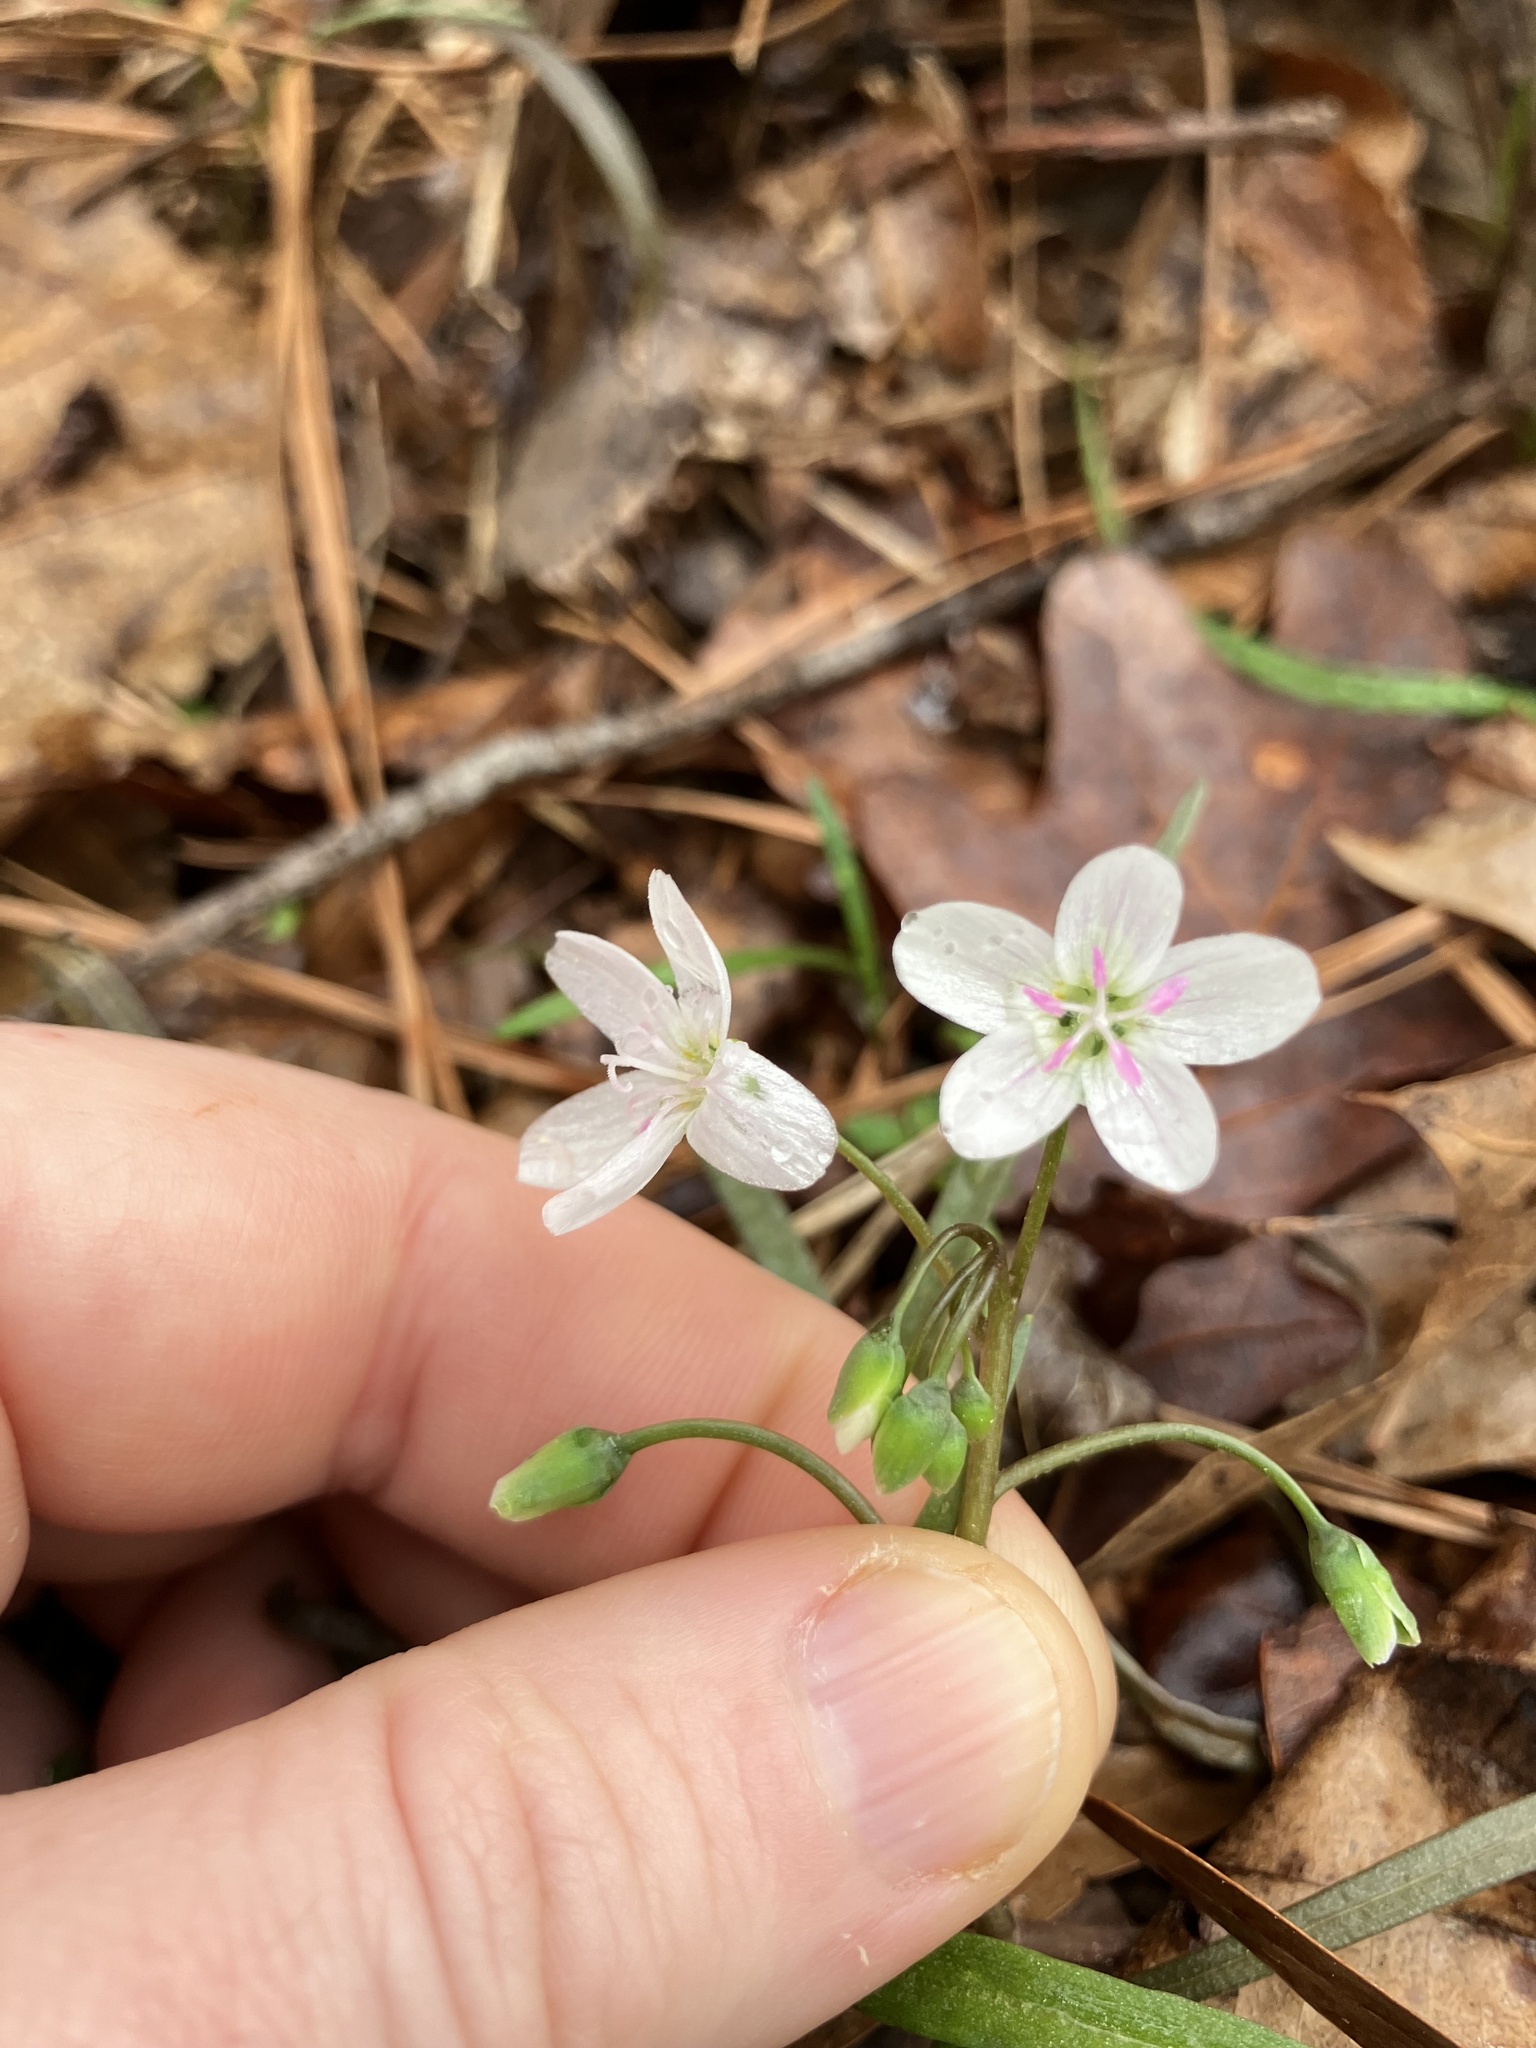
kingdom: Plantae
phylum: Tracheophyta
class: Magnoliopsida
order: Caryophyllales
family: Montiaceae
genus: Claytonia
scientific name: Claytonia virginica
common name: Virginia springbeauty
